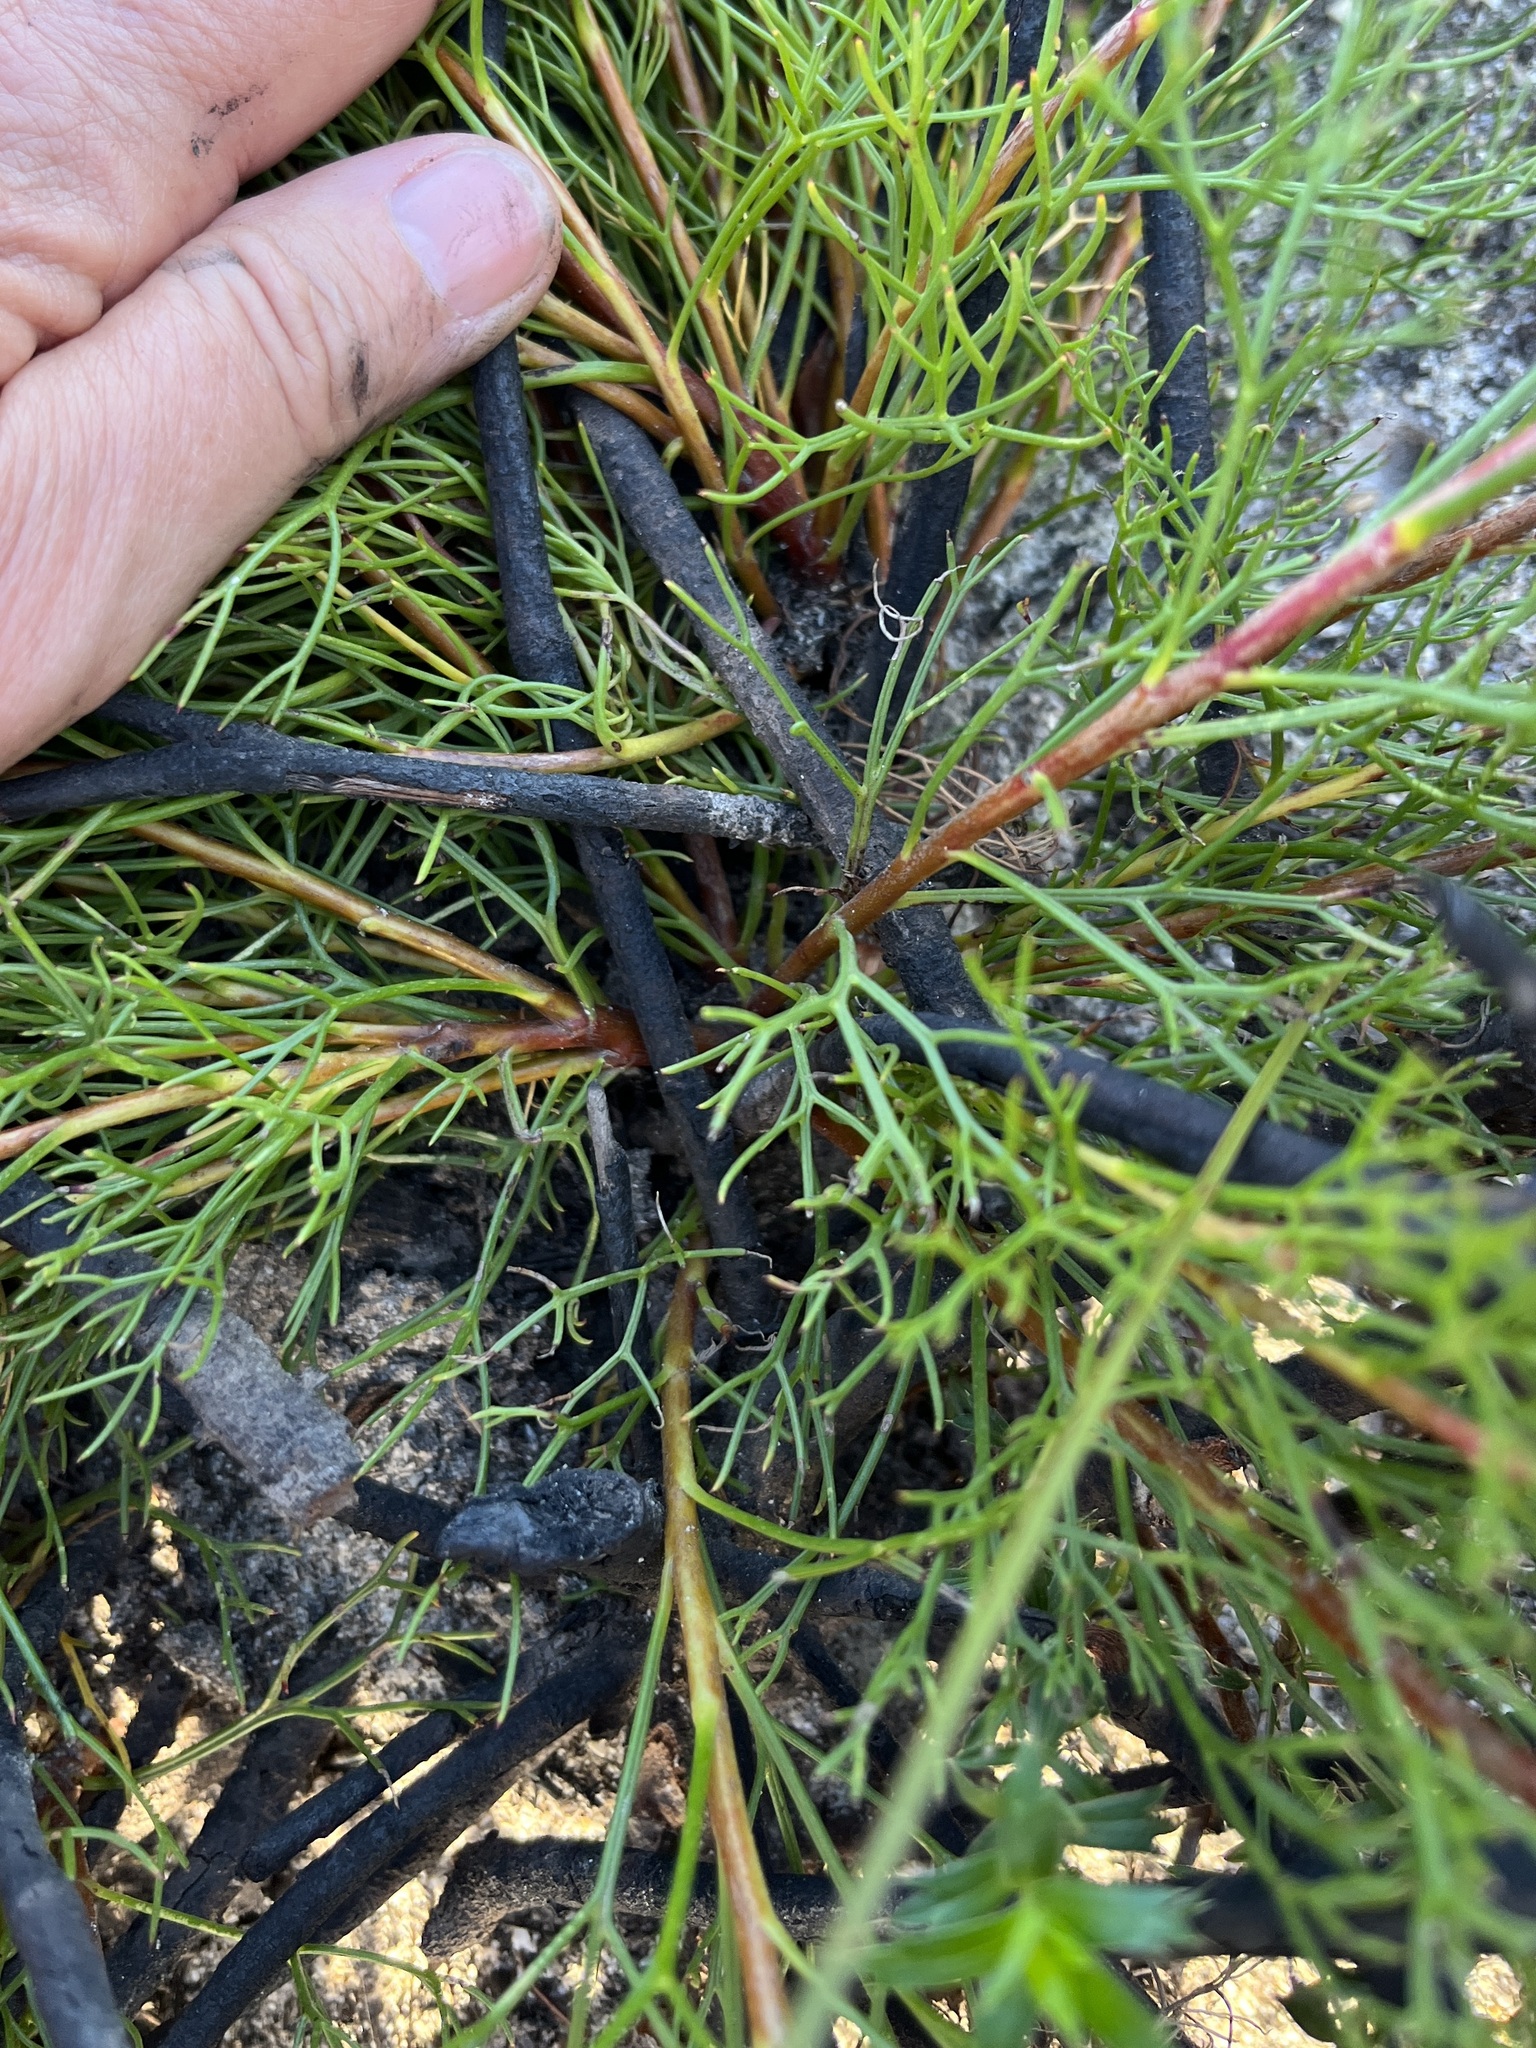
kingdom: Plantae
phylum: Tracheophyta
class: Magnoliopsida
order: Proteales
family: Proteaceae
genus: Serruria
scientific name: Serruria rubricaulis
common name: Red-stem spiderhead
